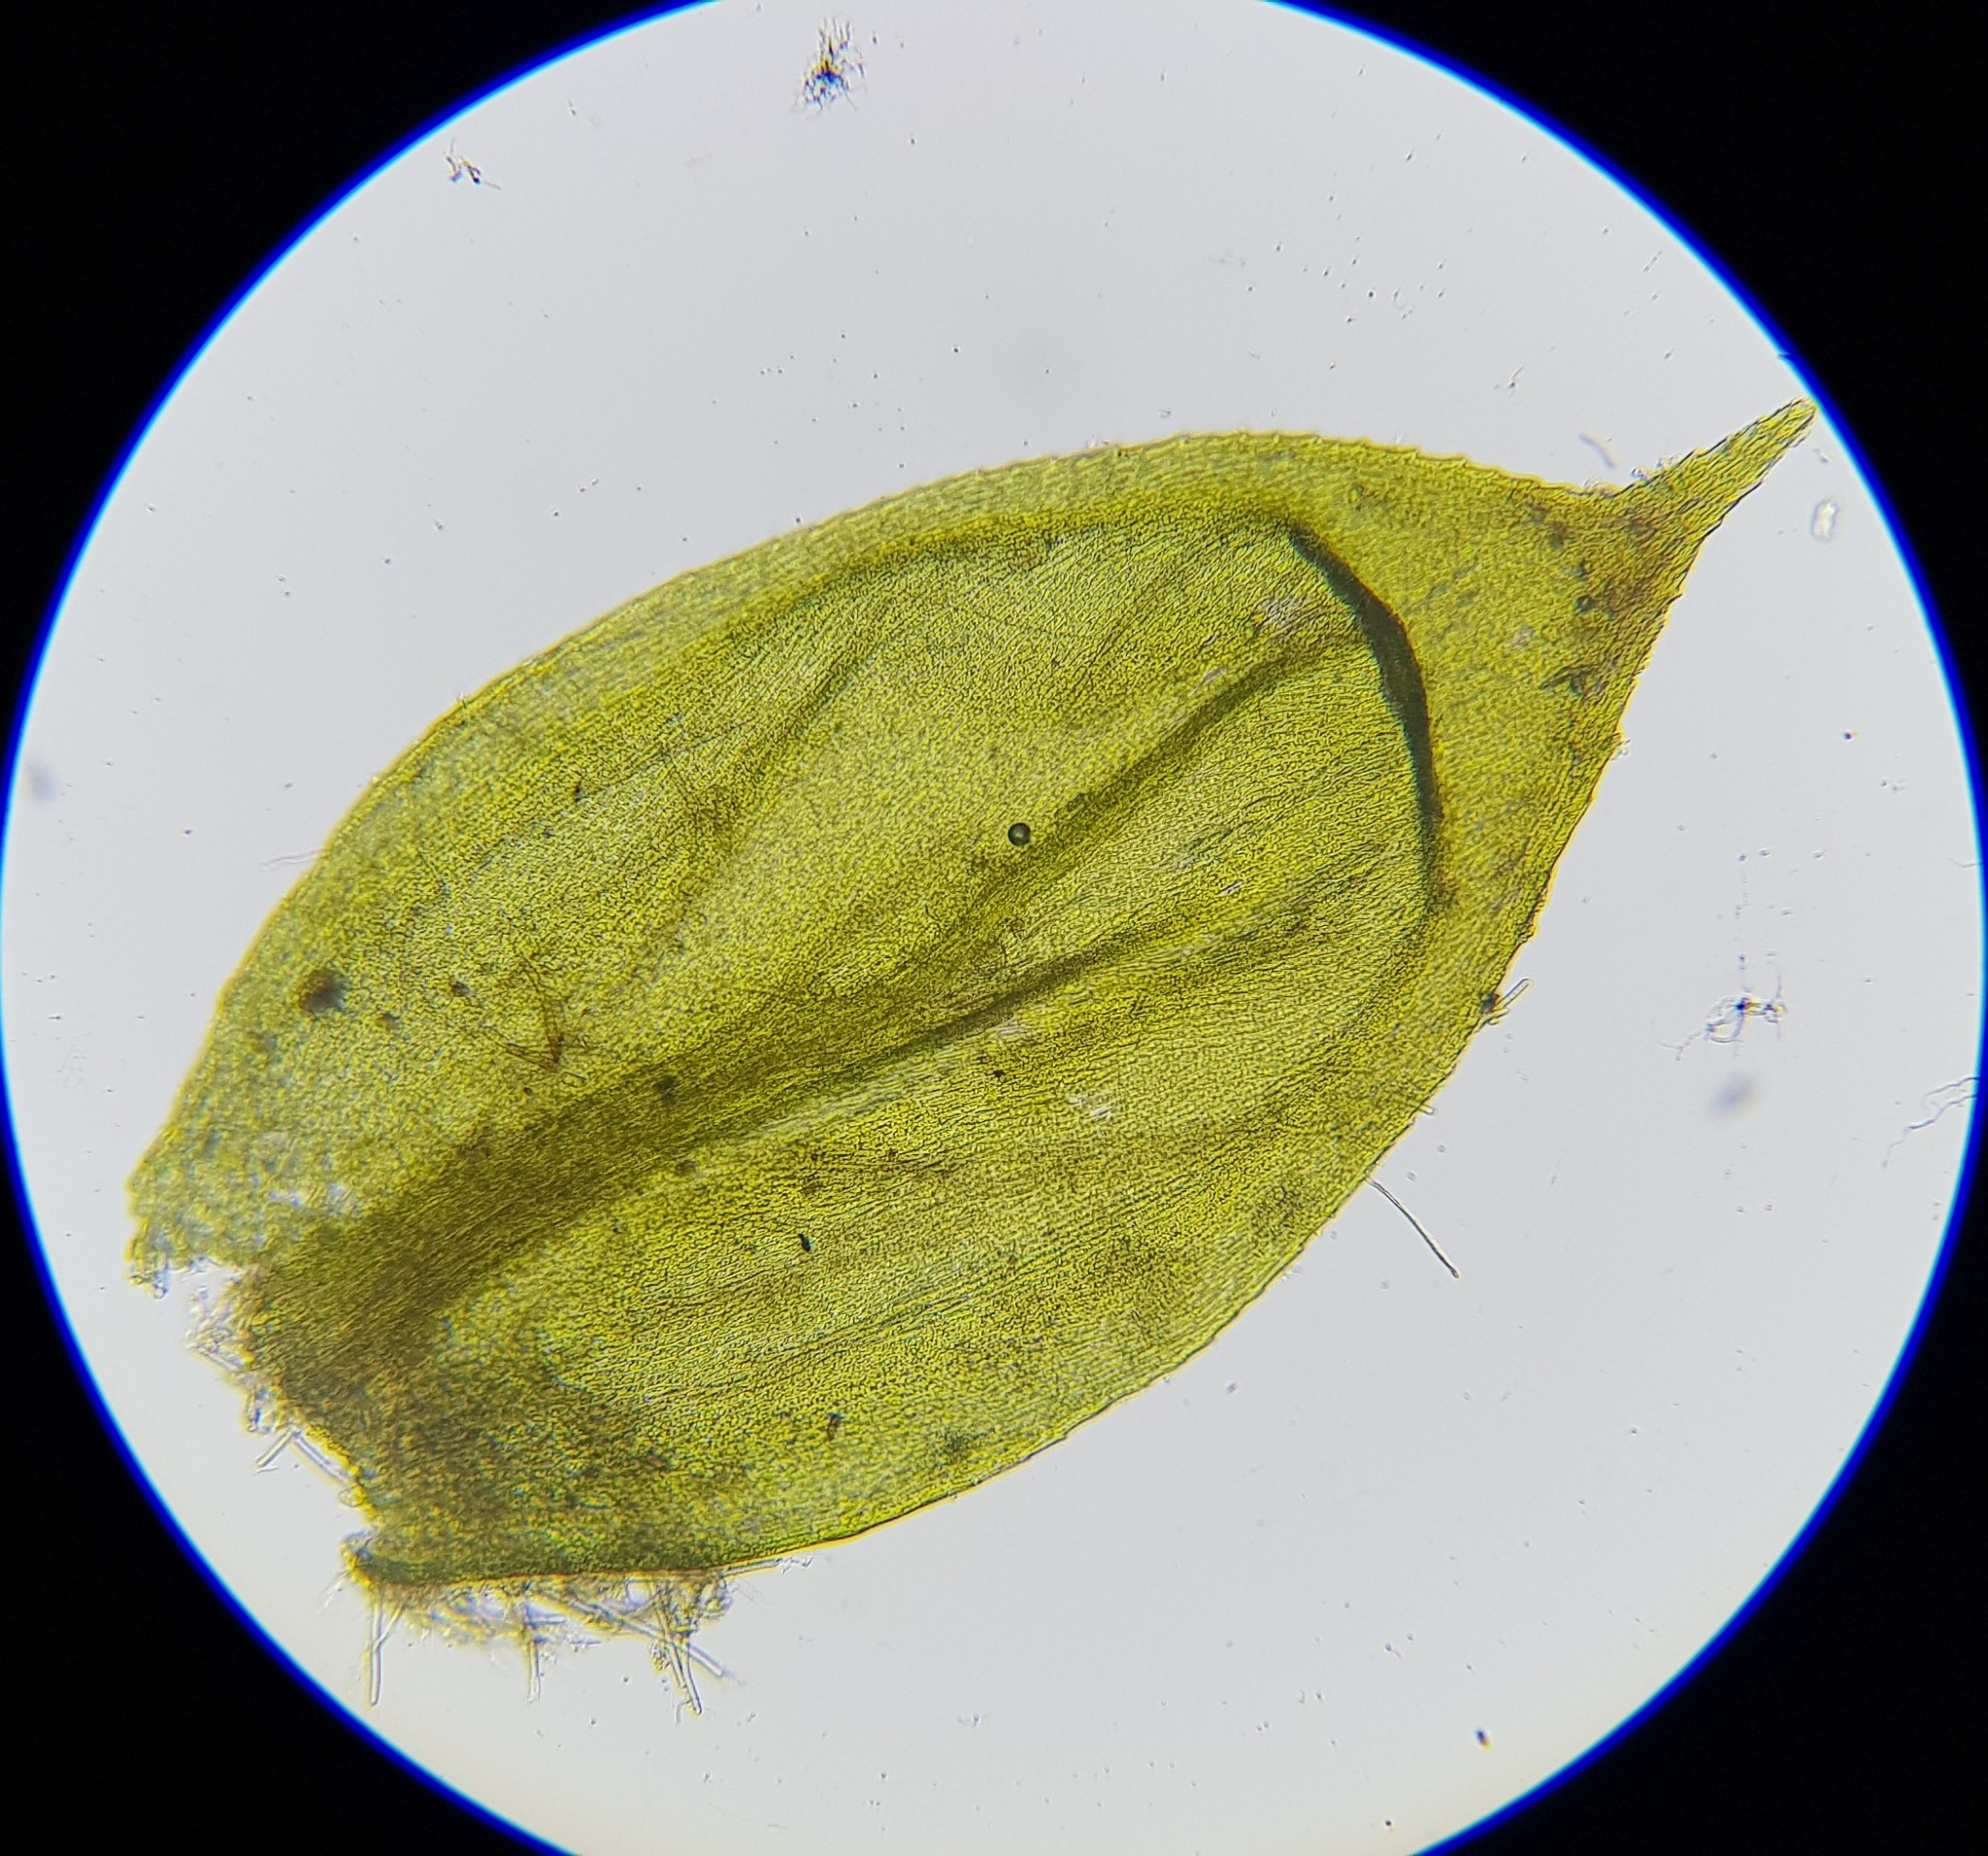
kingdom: Plantae
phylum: Bryophyta
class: Bryopsida
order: Hypnales
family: Brachytheciaceae
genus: Cirriphyllum
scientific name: Cirriphyllum crassinervium
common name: Beech feather-moss
